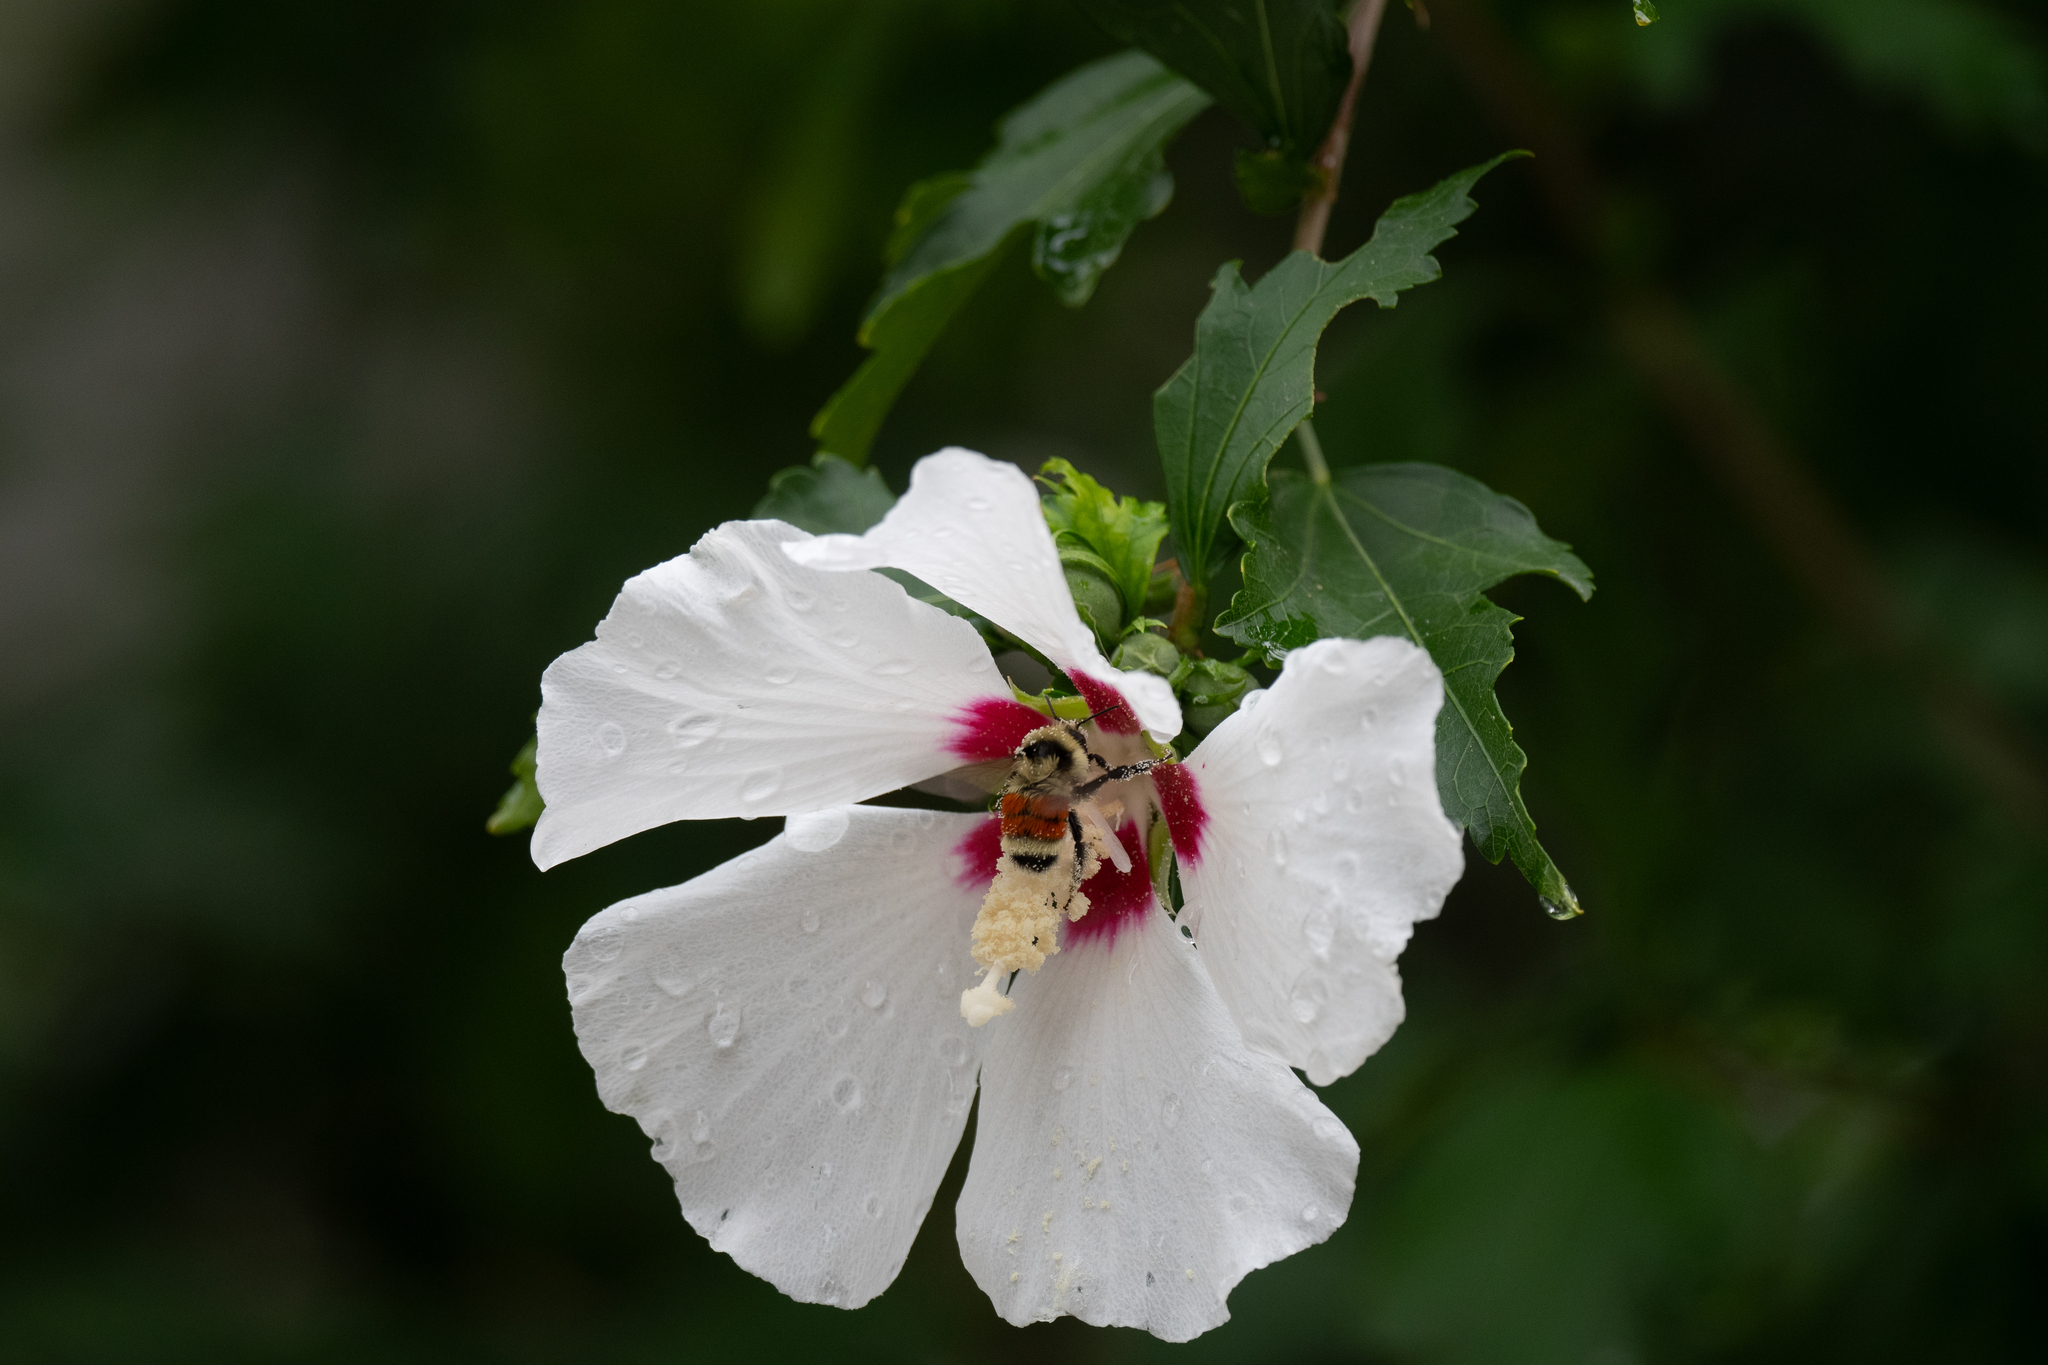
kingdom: Animalia
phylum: Arthropoda
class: Insecta
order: Hymenoptera
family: Apidae
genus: Bombus
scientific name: Bombus huntii
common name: Hunt bumble bee
